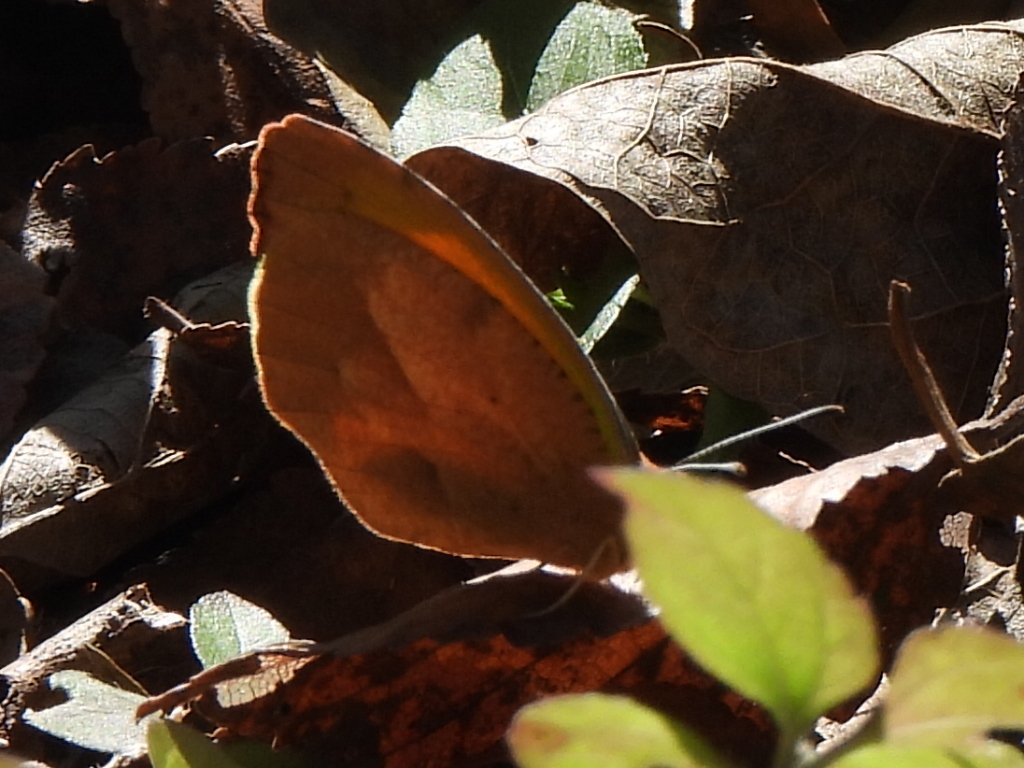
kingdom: Animalia
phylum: Arthropoda
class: Insecta
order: Lepidoptera
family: Pieridae
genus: Abaeis
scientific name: Abaeis nicippe
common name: Sleepy orange
